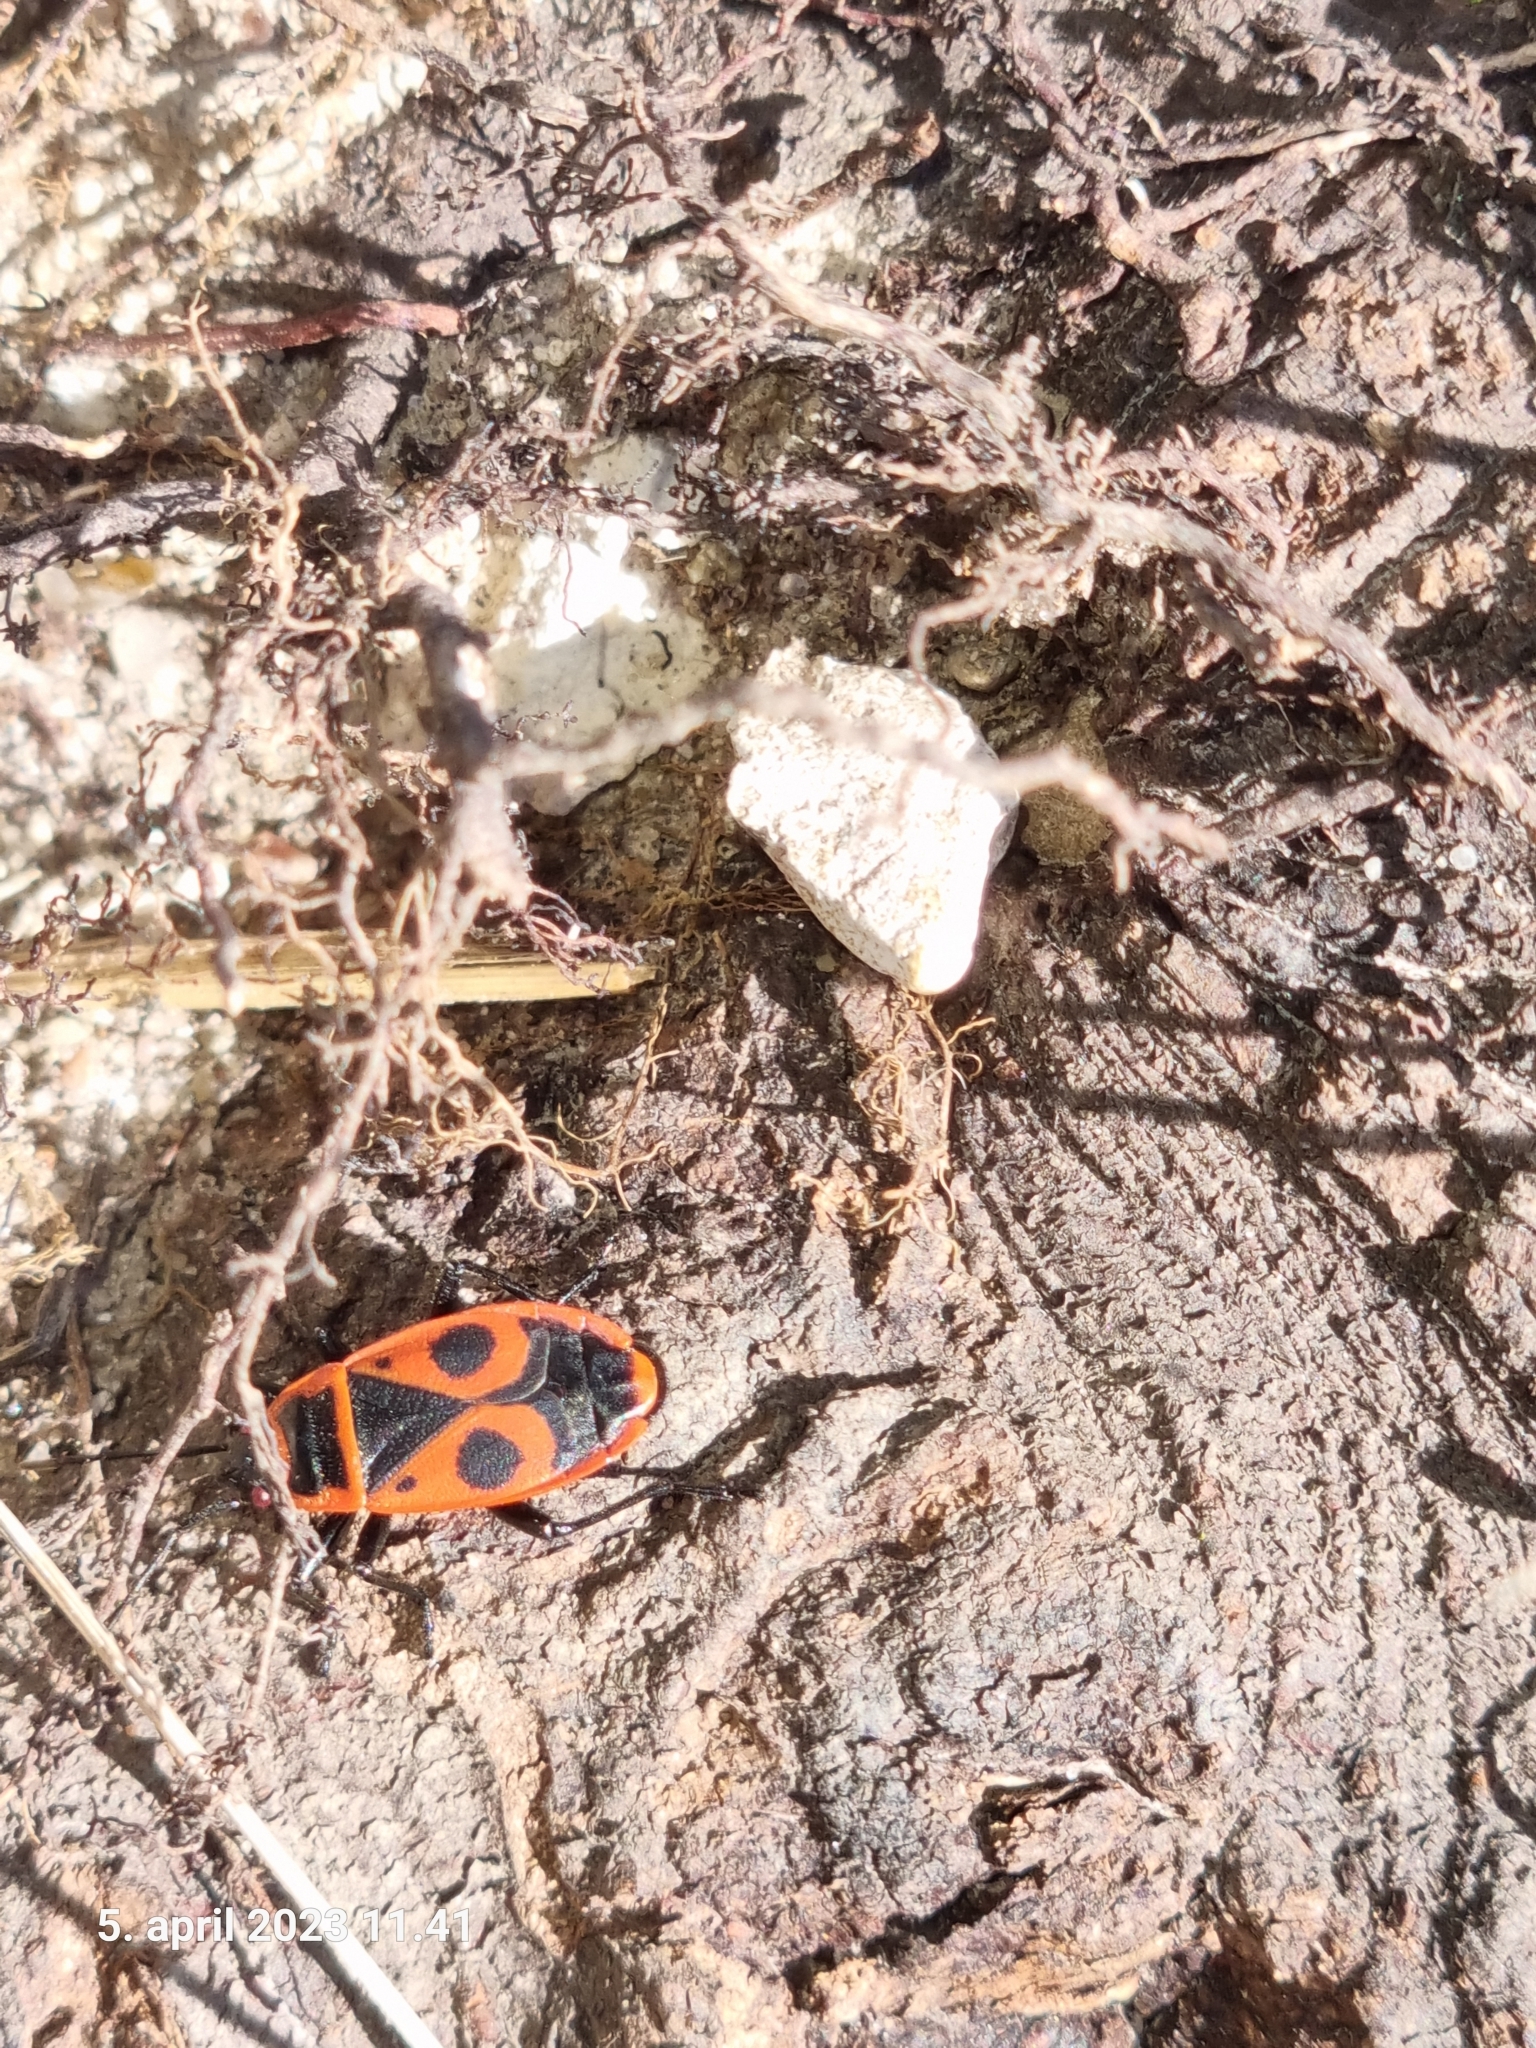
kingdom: Animalia
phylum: Arthropoda
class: Insecta
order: Hemiptera
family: Pyrrhocoridae
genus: Pyrrhocoris
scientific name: Pyrrhocoris apterus
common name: Firebug
